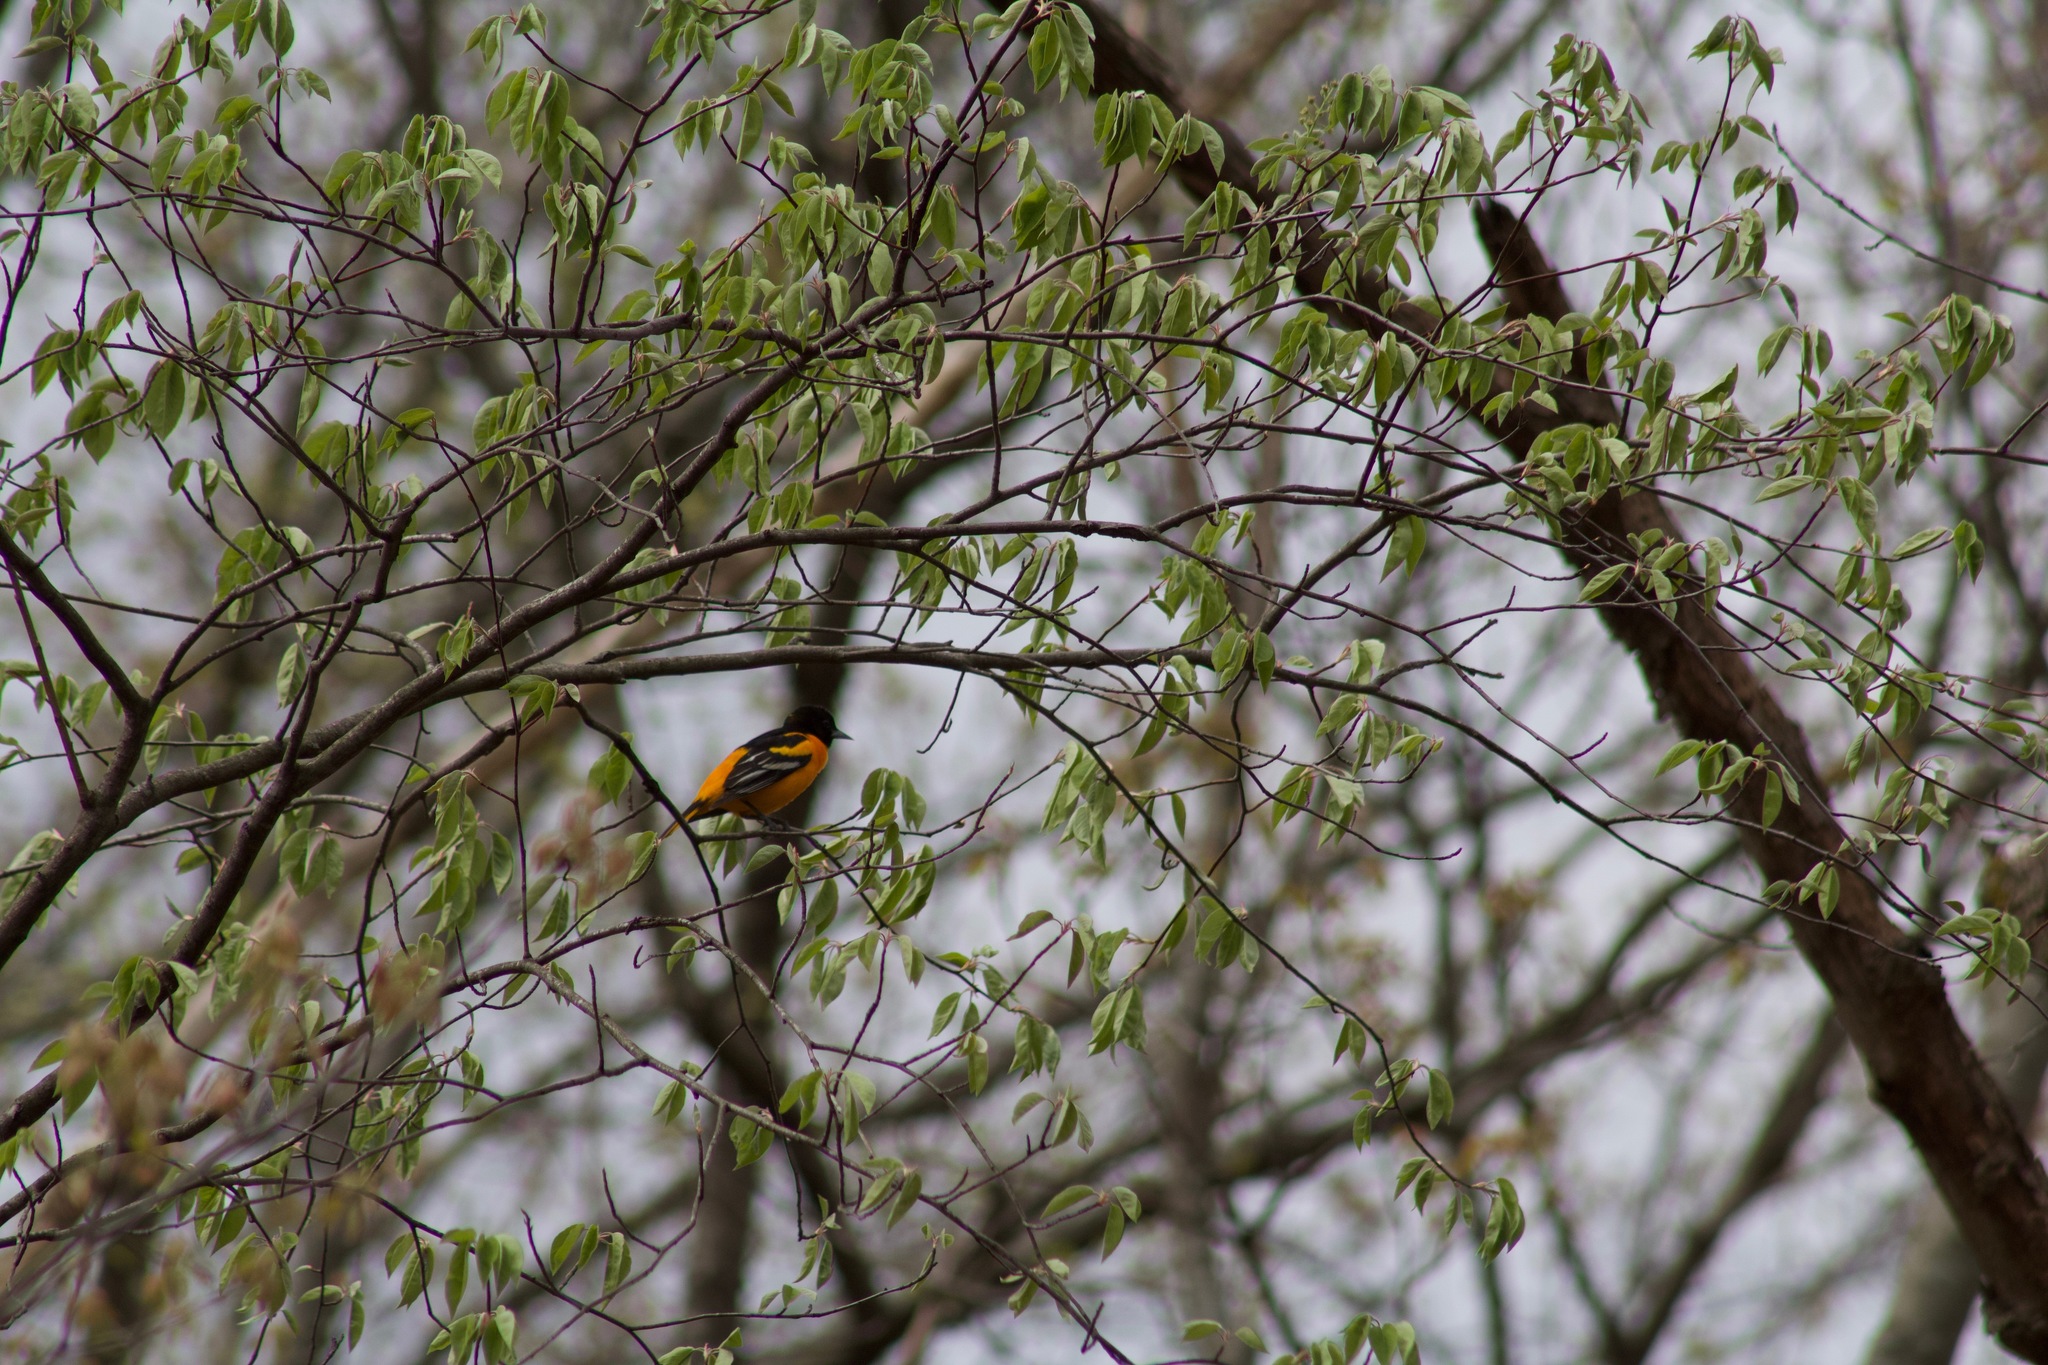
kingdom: Animalia
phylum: Chordata
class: Aves
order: Passeriformes
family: Icteridae
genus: Icterus
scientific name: Icterus galbula
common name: Baltimore oriole
